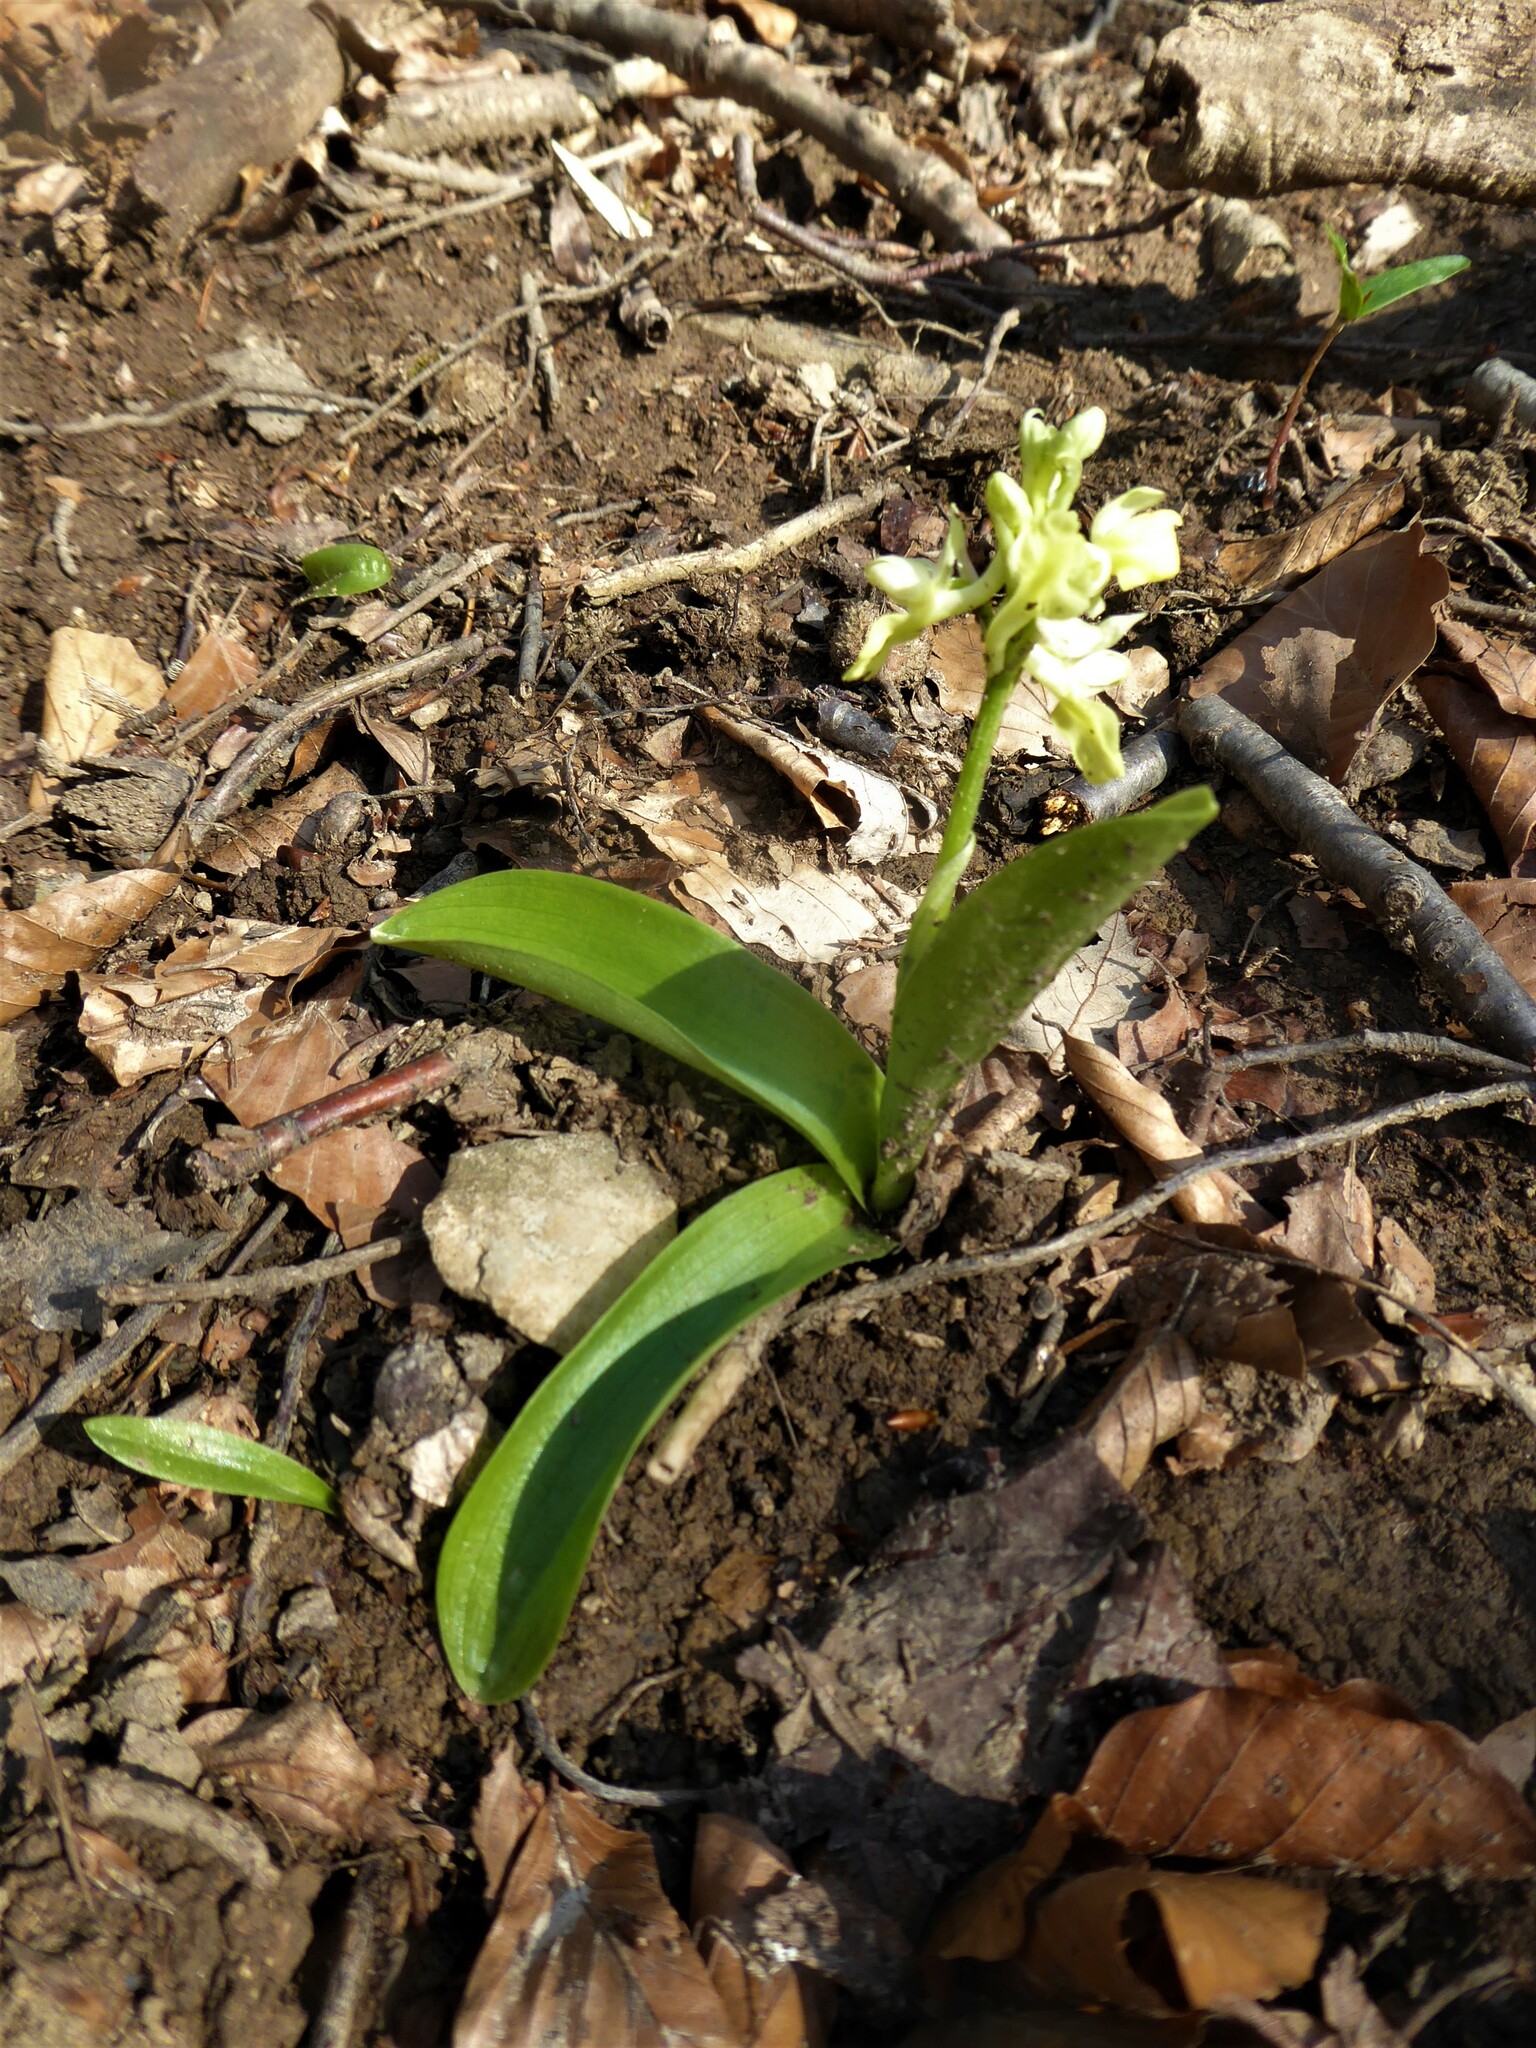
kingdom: Plantae
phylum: Tracheophyta
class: Liliopsida
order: Asparagales
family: Orchidaceae
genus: Orchis
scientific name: Orchis pallens
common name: Pale-flowered orchid
